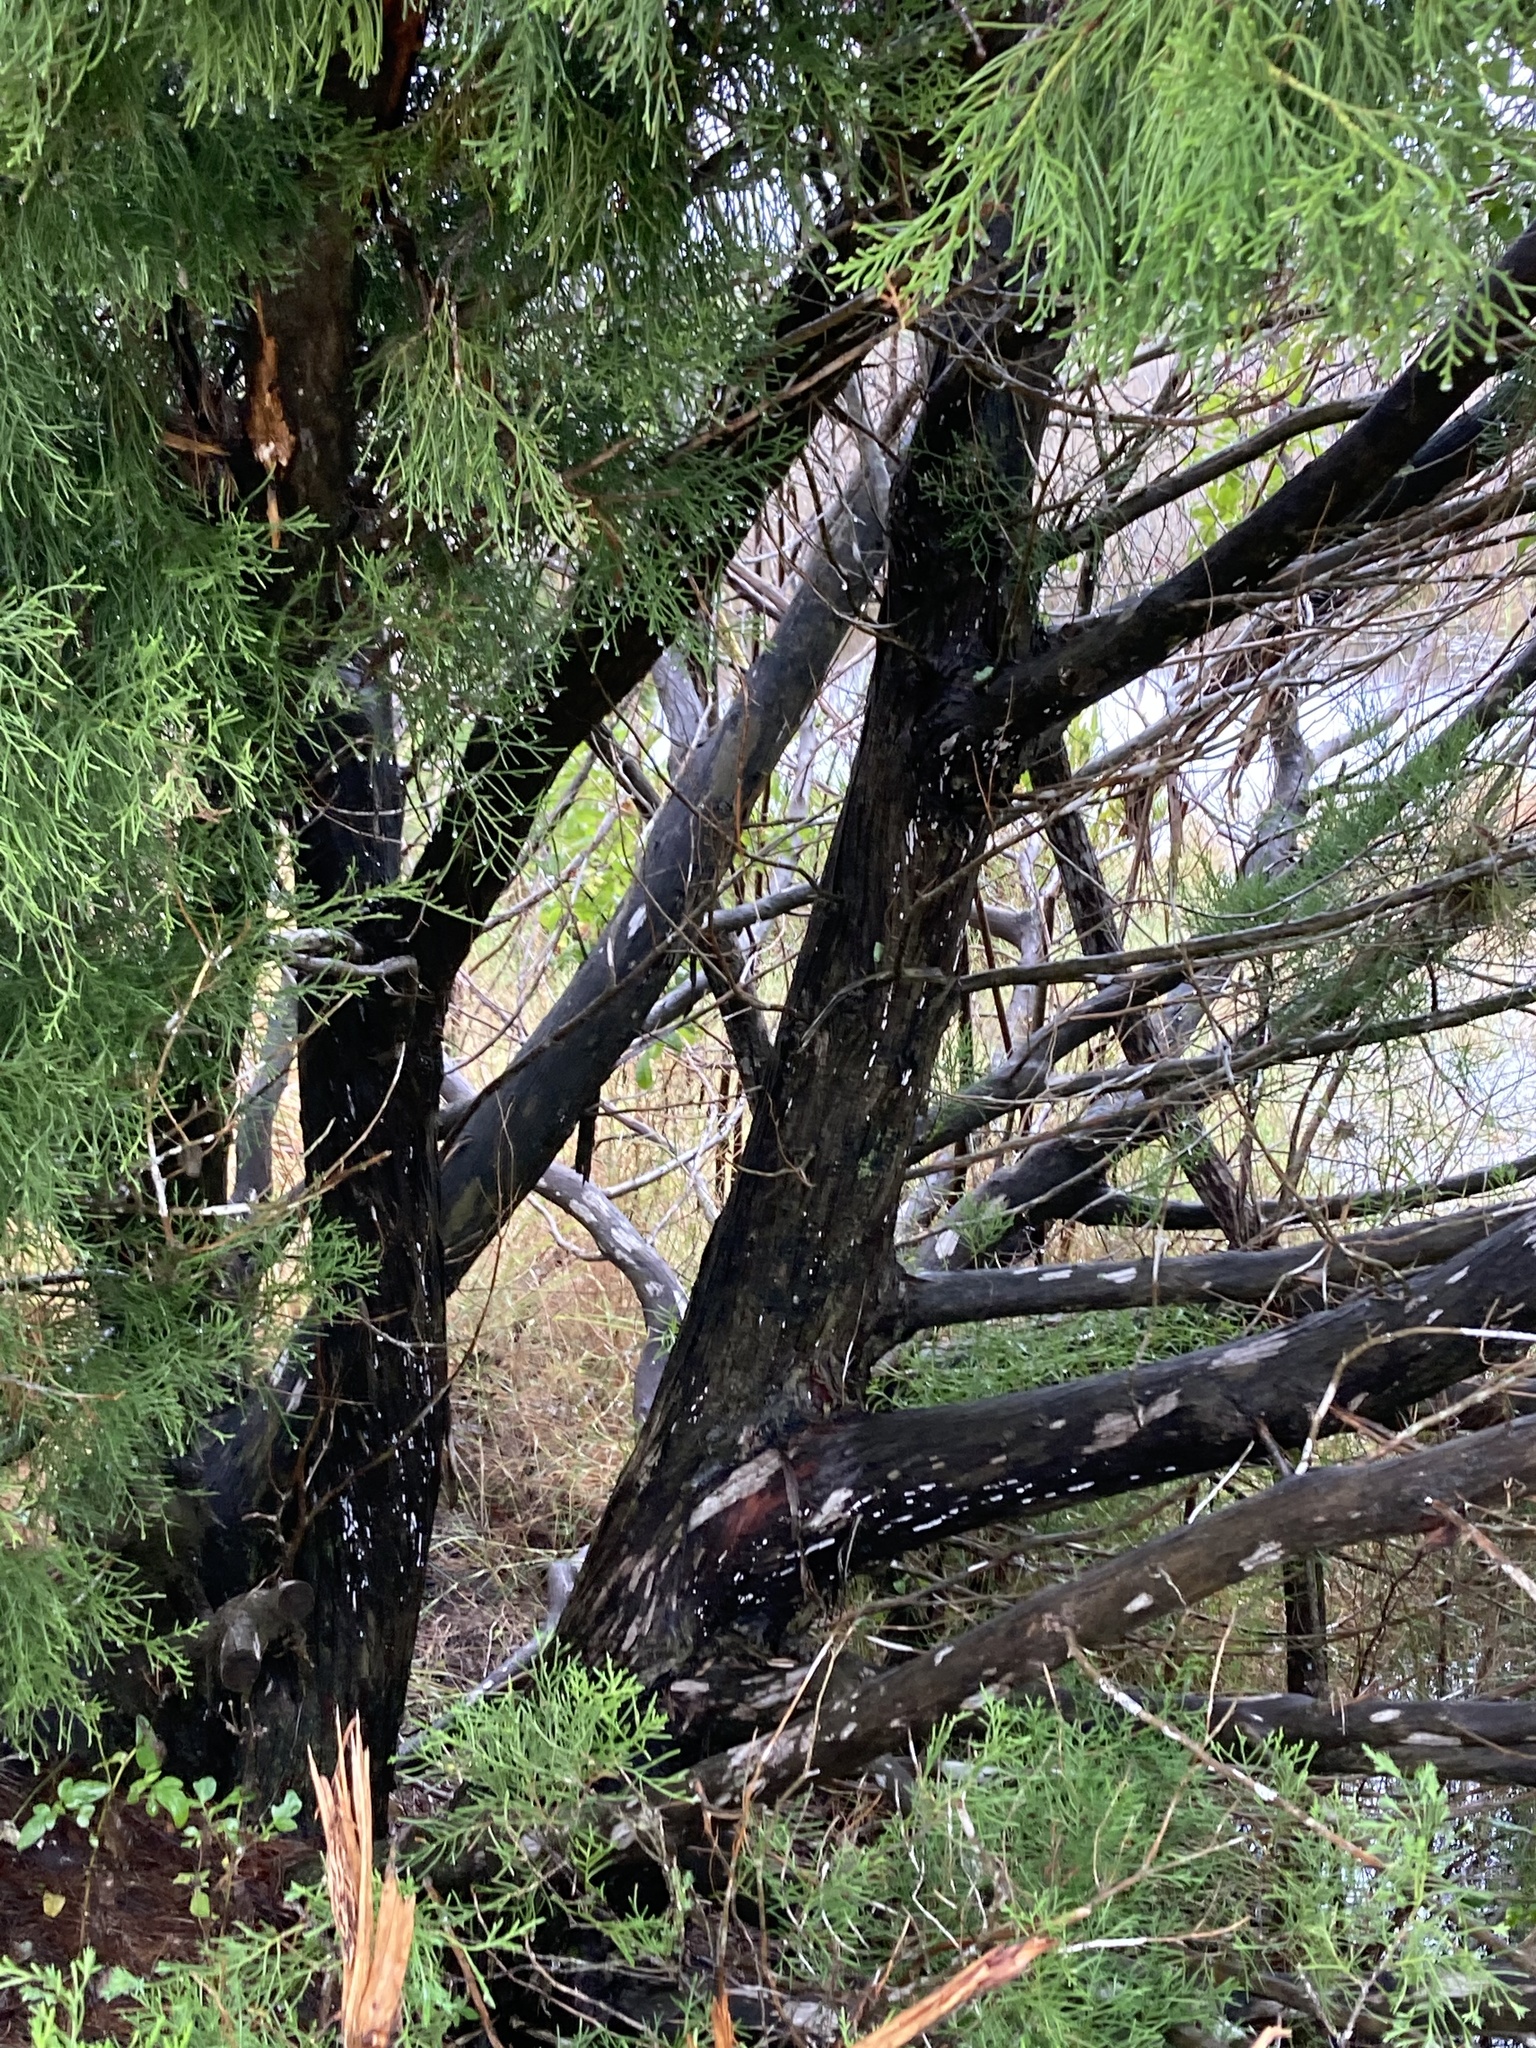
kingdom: Plantae
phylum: Tracheophyta
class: Pinopsida
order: Pinales
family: Cupressaceae
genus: Juniperus
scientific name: Juniperus virginiana
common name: Red juniper
